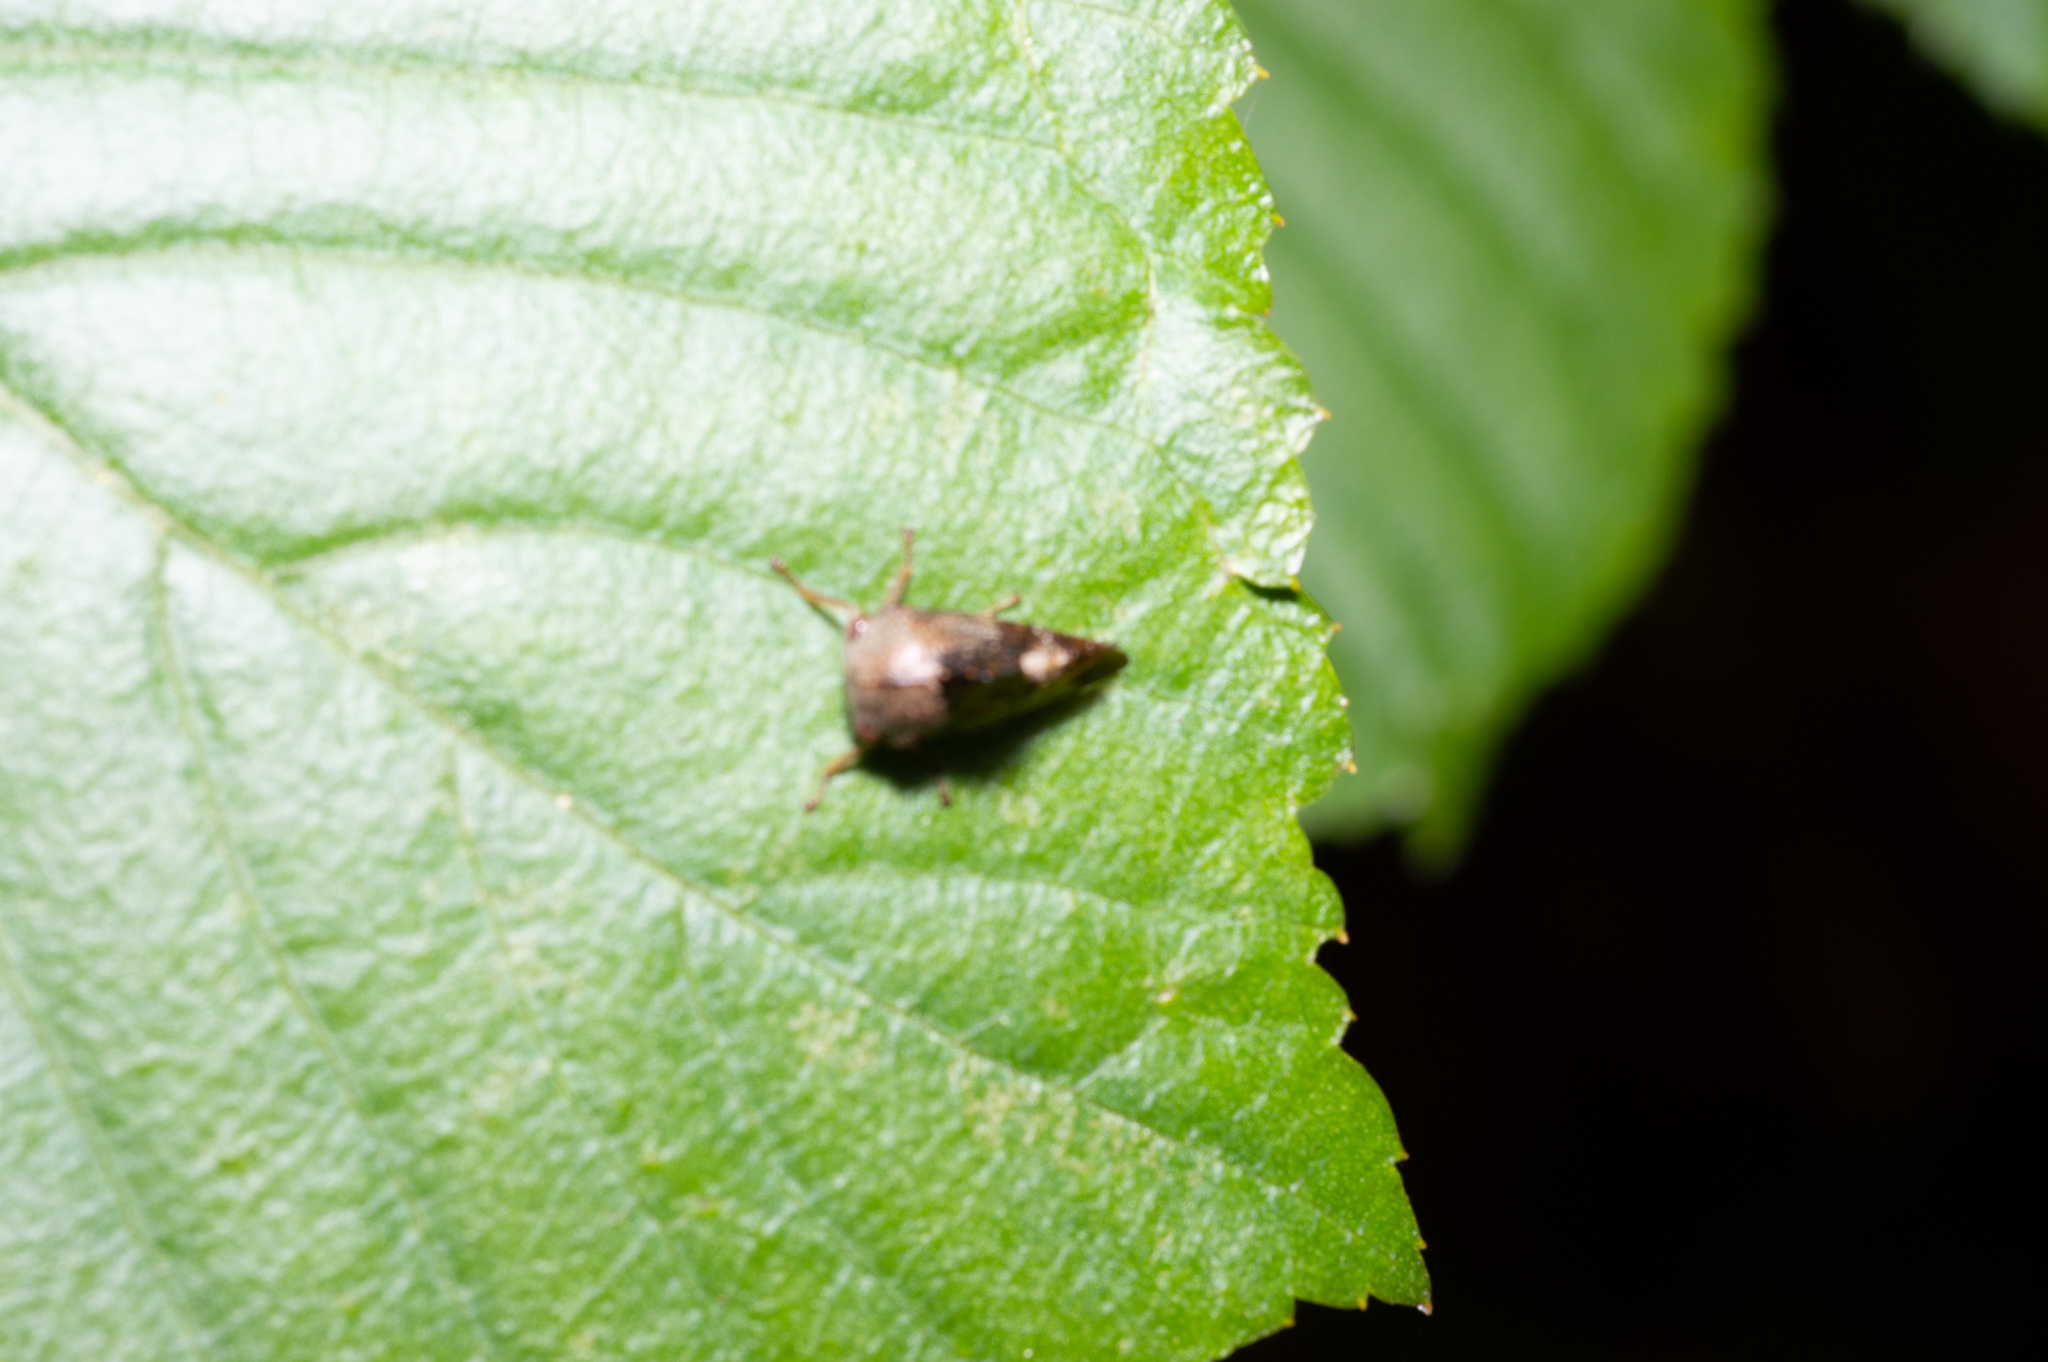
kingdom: Animalia
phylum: Arthropoda
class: Insecta
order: Hemiptera
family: Membracidae
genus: Telamona
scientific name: Telamona decorata
